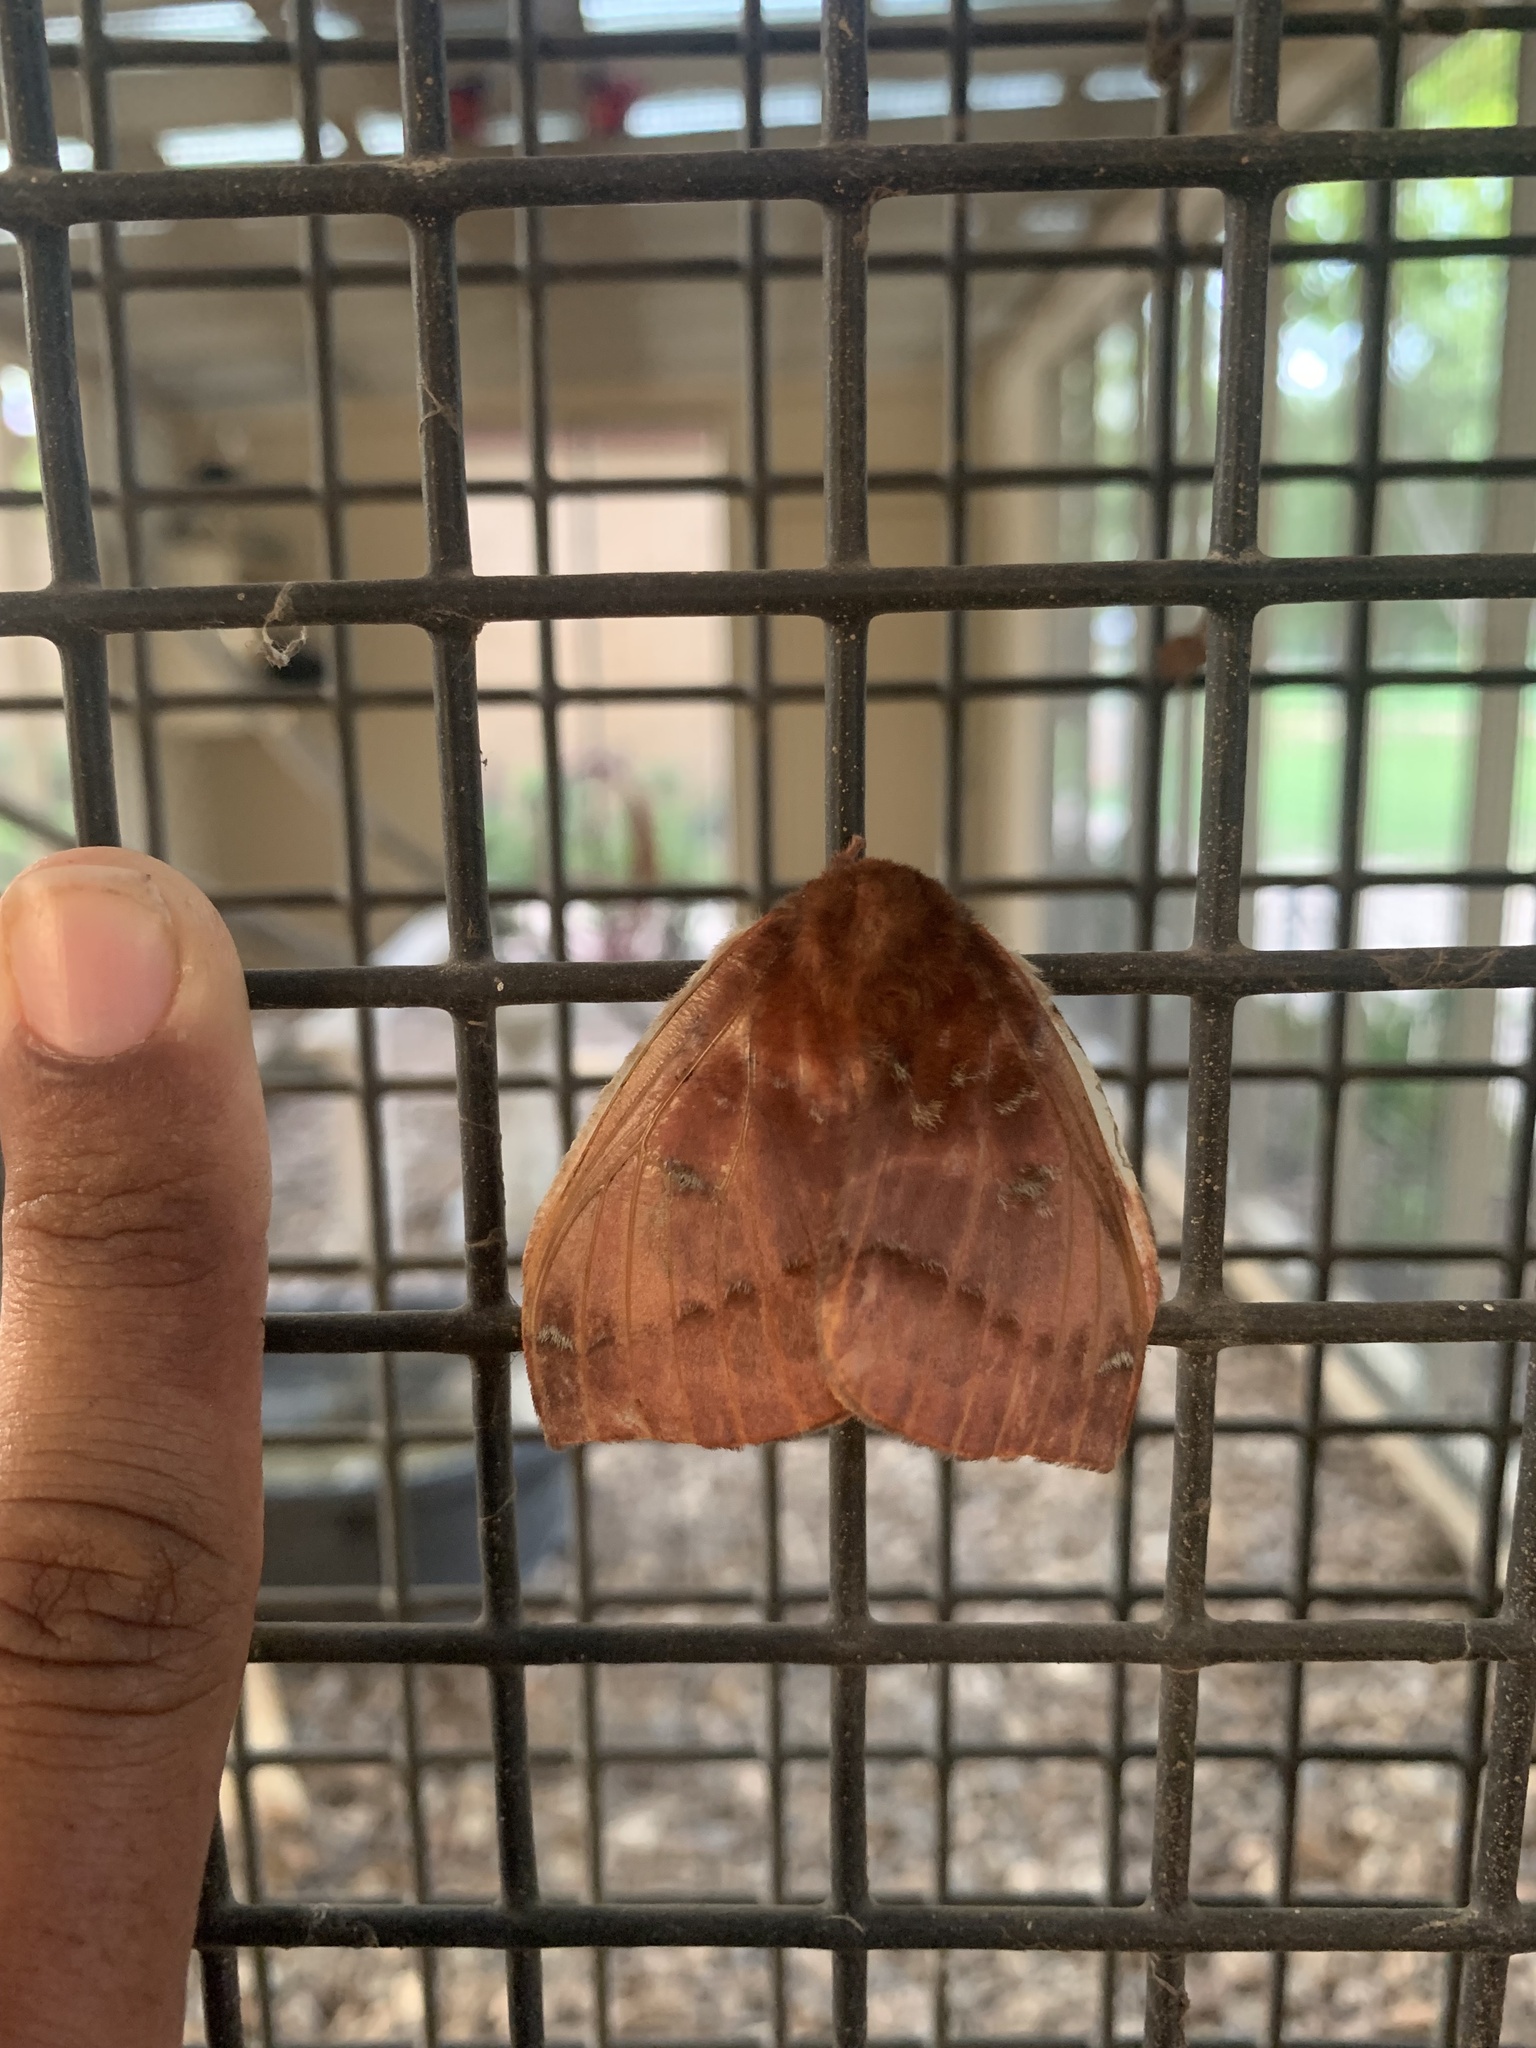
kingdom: Animalia
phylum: Arthropoda
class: Insecta
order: Lepidoptera
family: Saturniidae
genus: Automeris
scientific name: Automeris io
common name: Io moth
